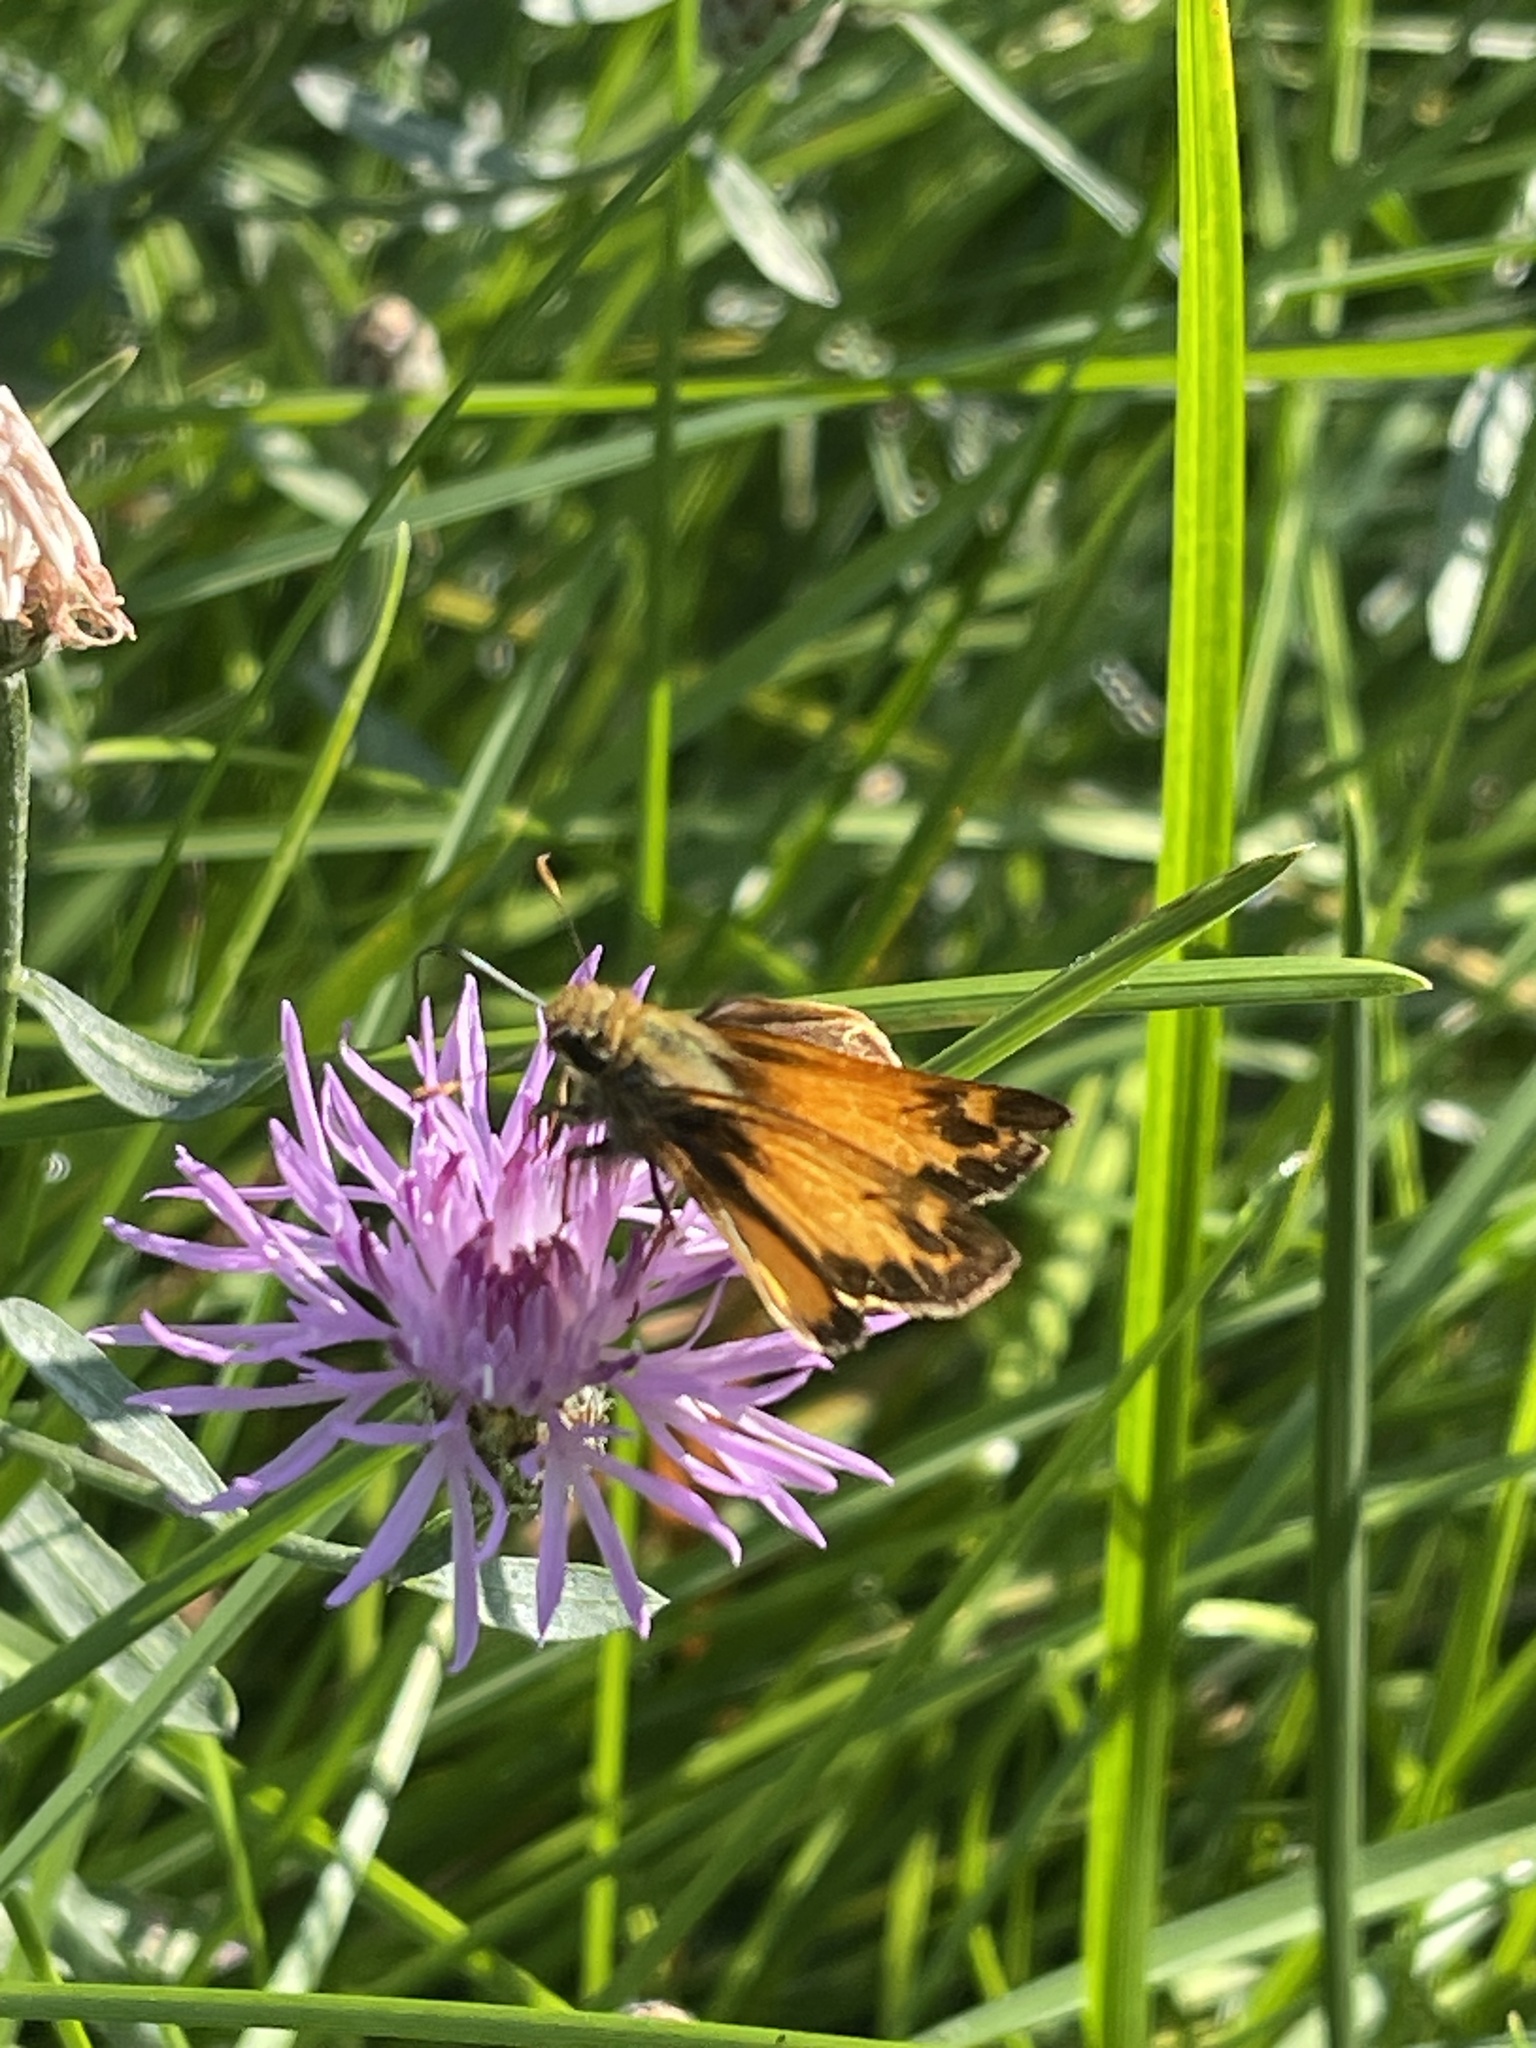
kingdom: Animalia
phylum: Arthropoda
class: Insecta
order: Lepidoptera
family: Hesperiidae
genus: Lon
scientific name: Lon zabulon
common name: Zabulon skipper
